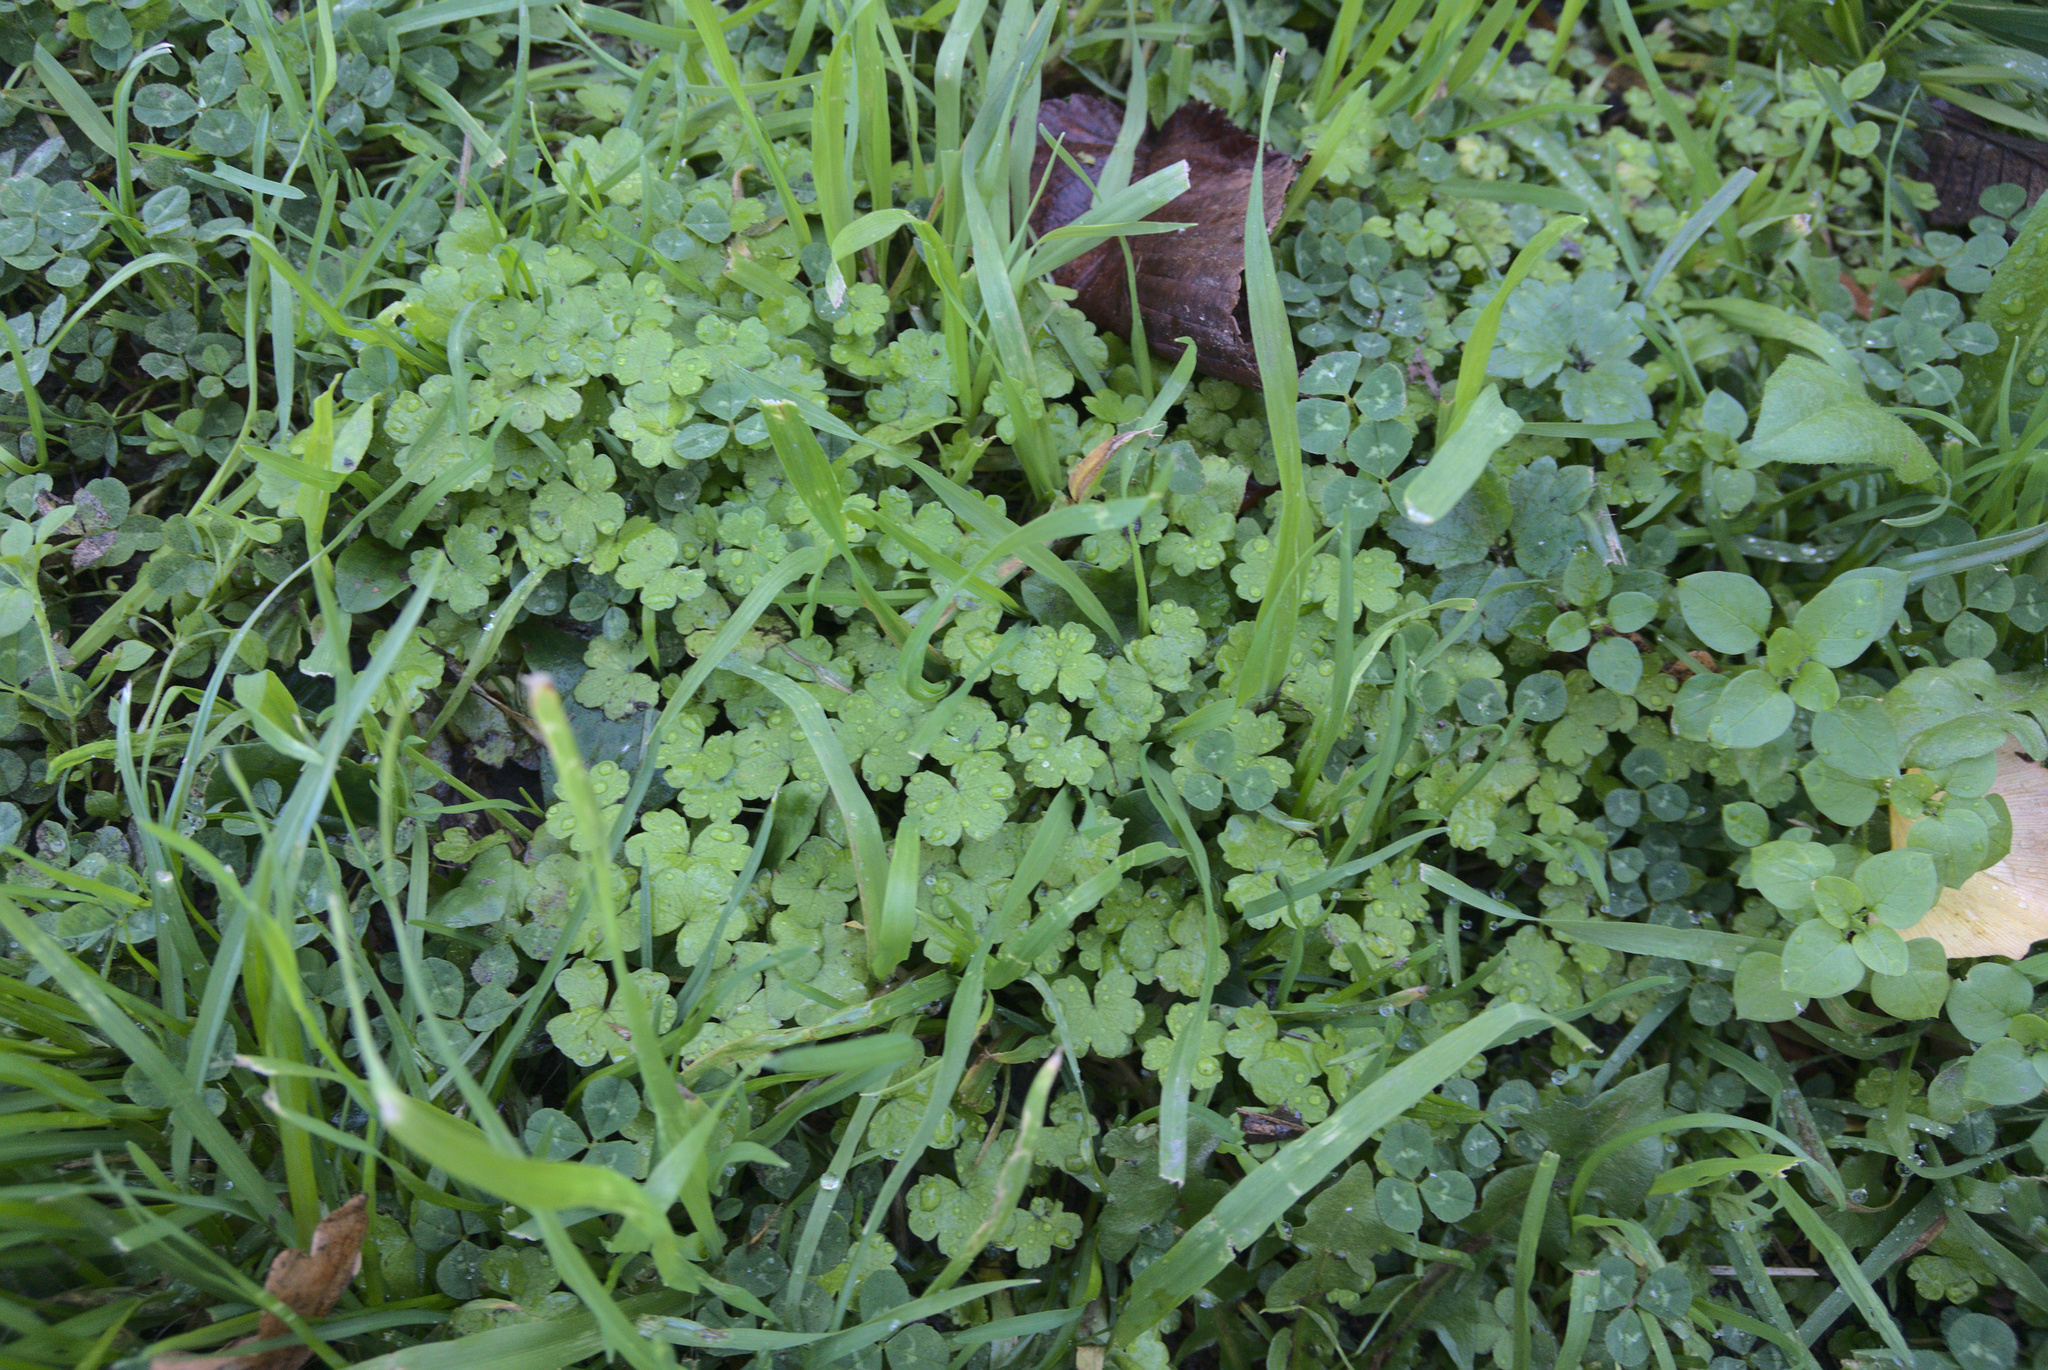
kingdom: Plantae
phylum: Tracheophyta
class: Magnoliopsida
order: Apiales
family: Araliaceae
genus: Hydrocotyle
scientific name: Hydrocotyle heteromeria
